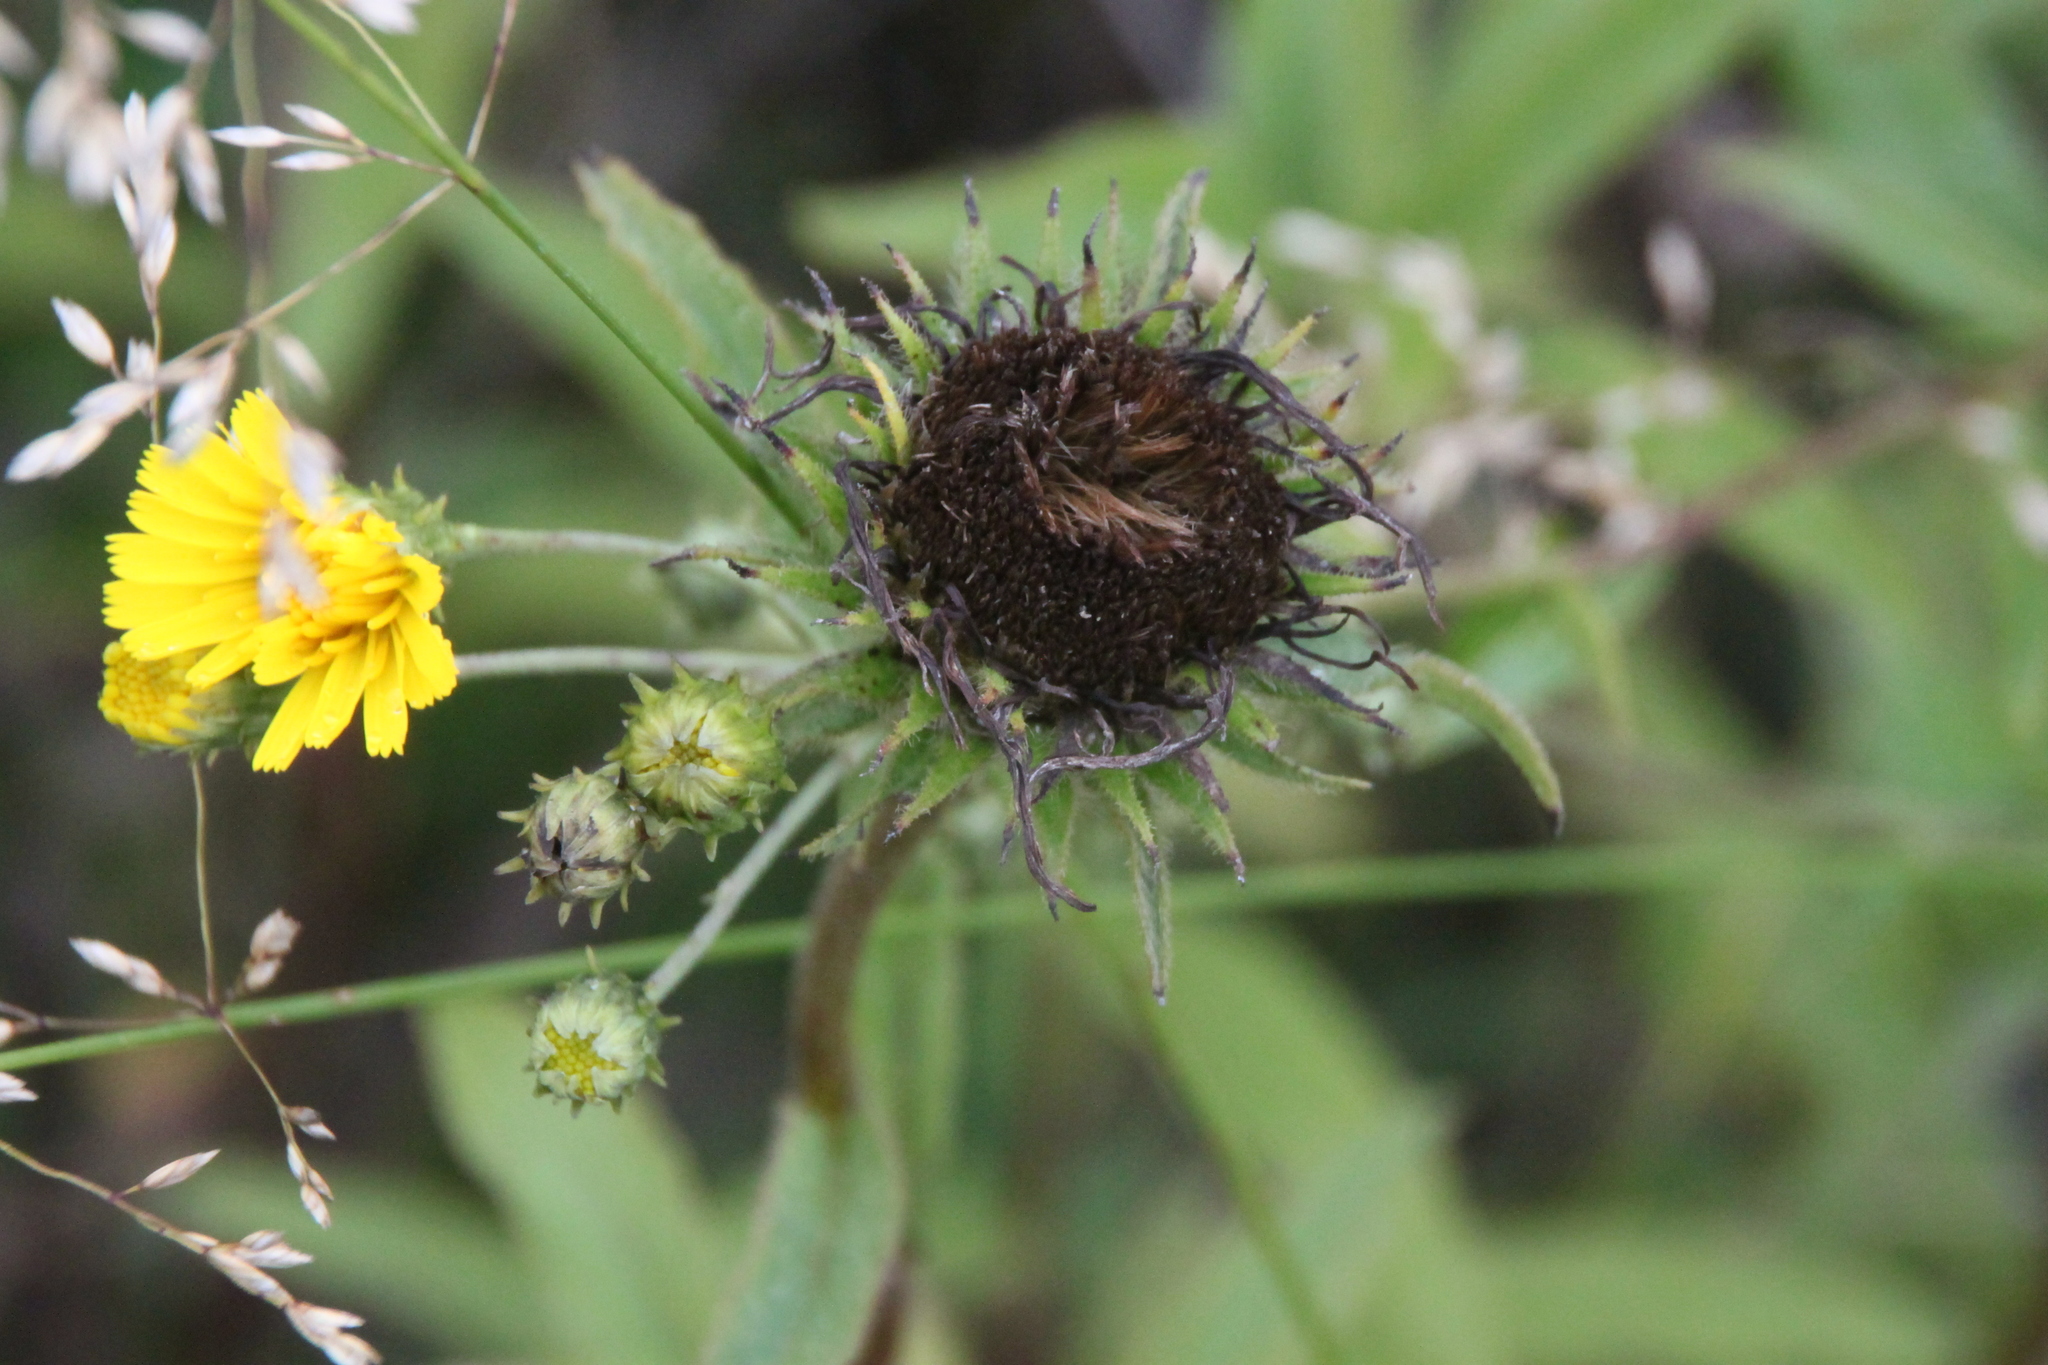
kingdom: Plantae
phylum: Tracheophyta
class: Magnoliopsida
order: Asterales
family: Asteraceae
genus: Pentanema
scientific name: Pentanema hirtum
